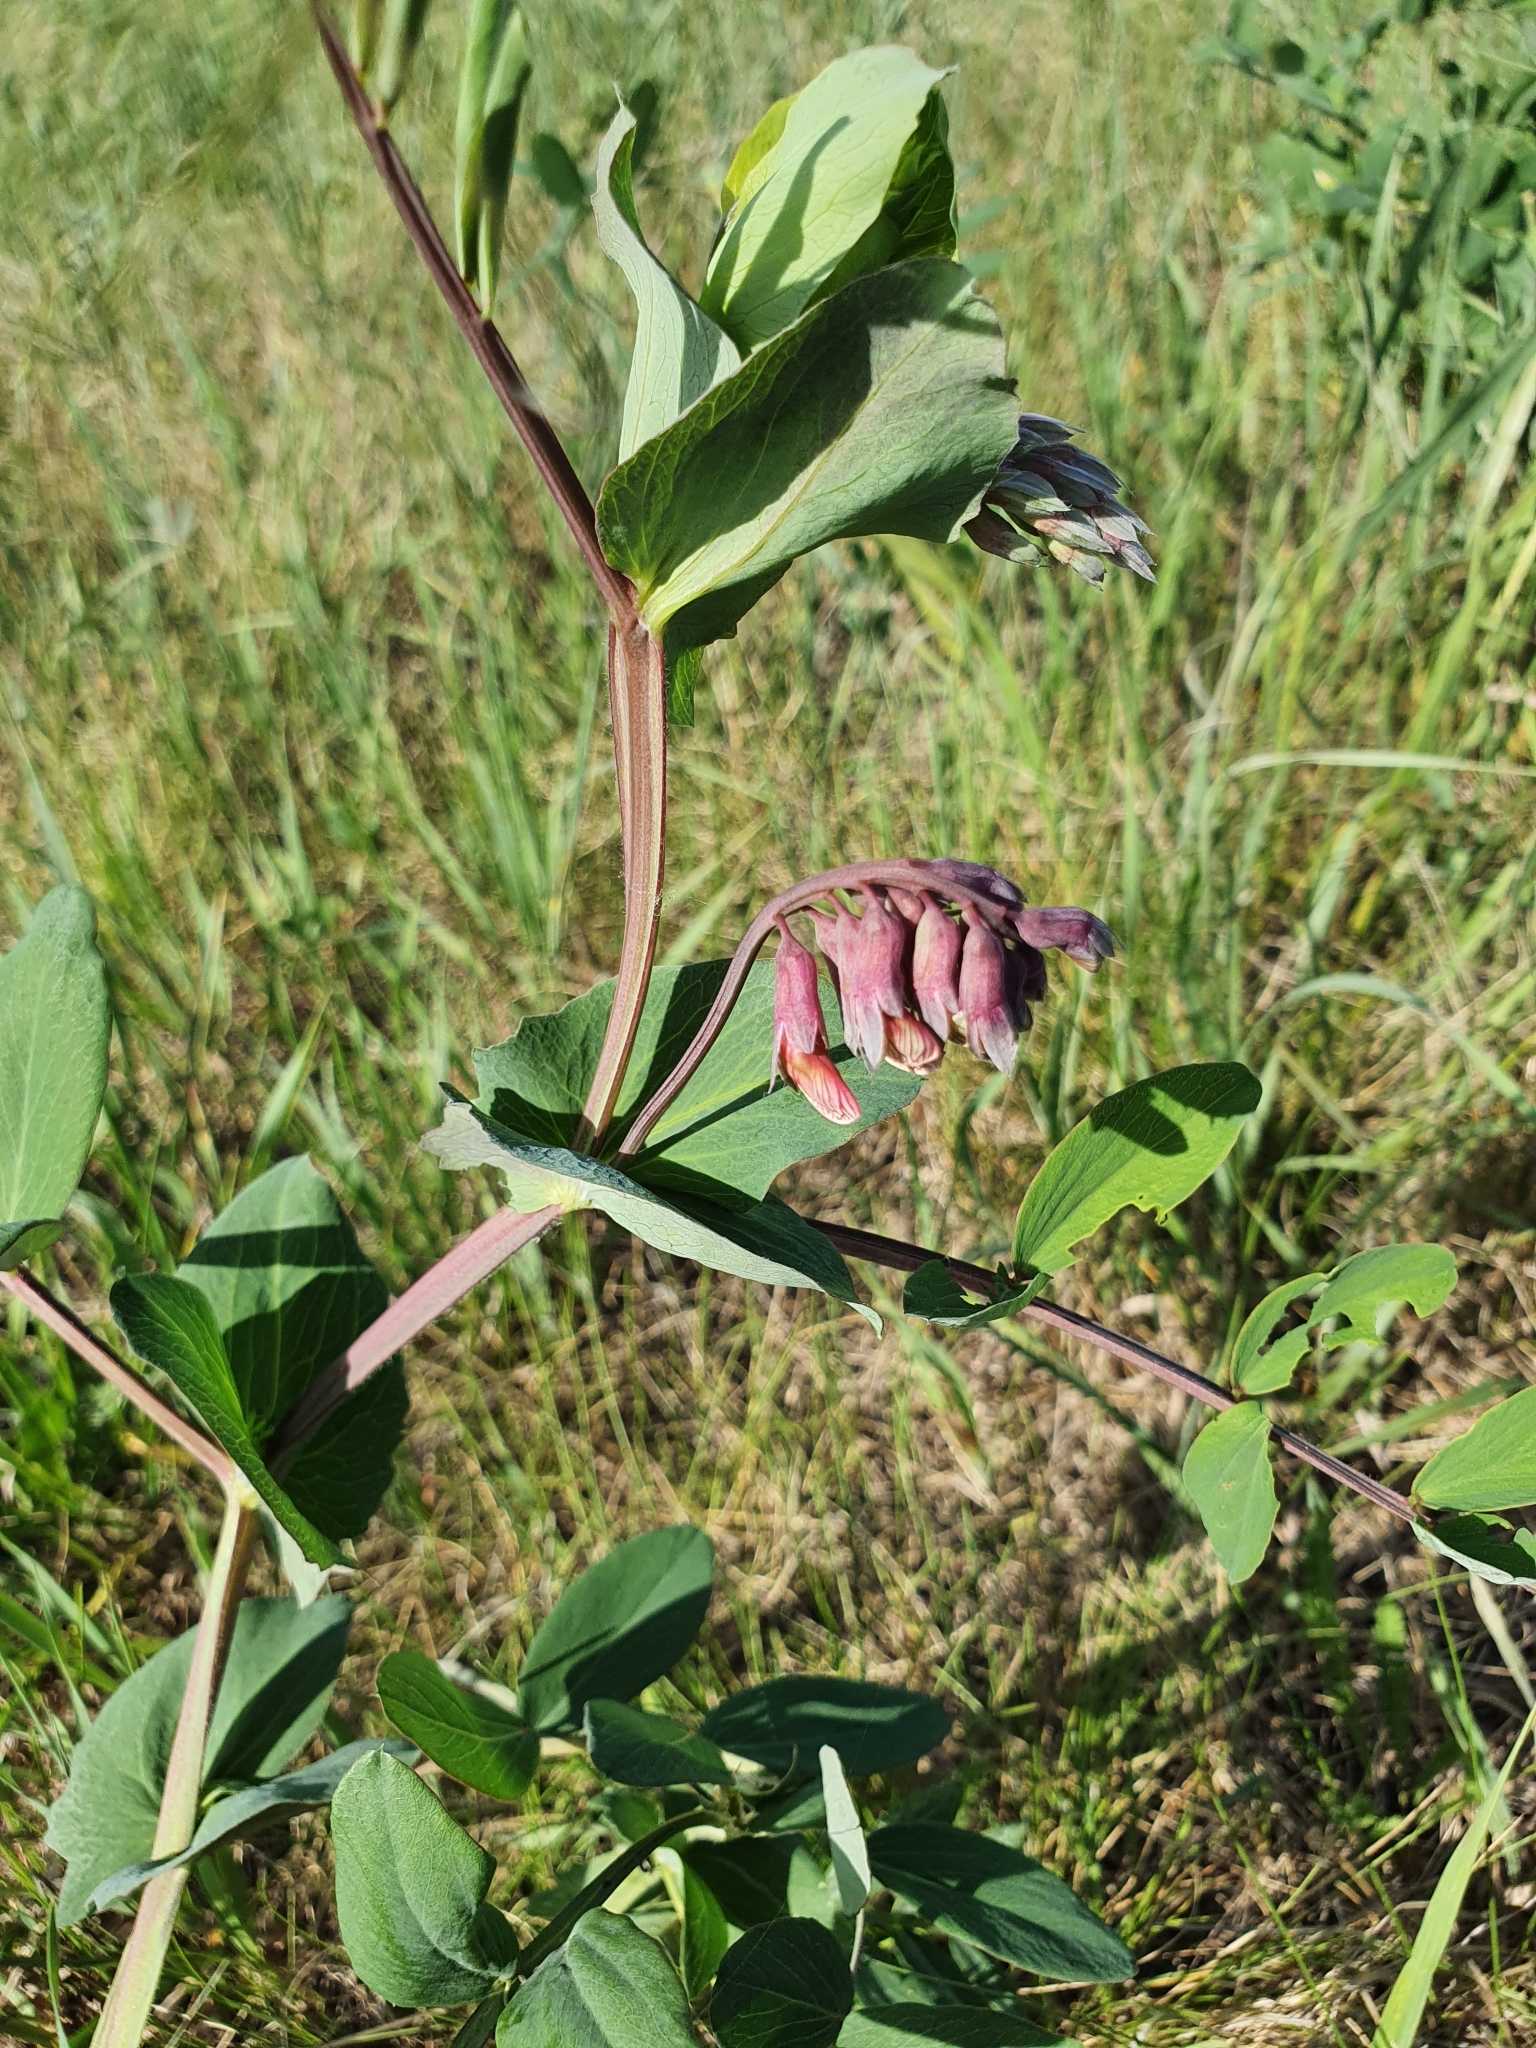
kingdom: Plantae
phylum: Tracheophyta
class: Magnoliopsida
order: Fabales
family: Fabaceae
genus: Lathyrus
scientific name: Lathyrus pisiformis
